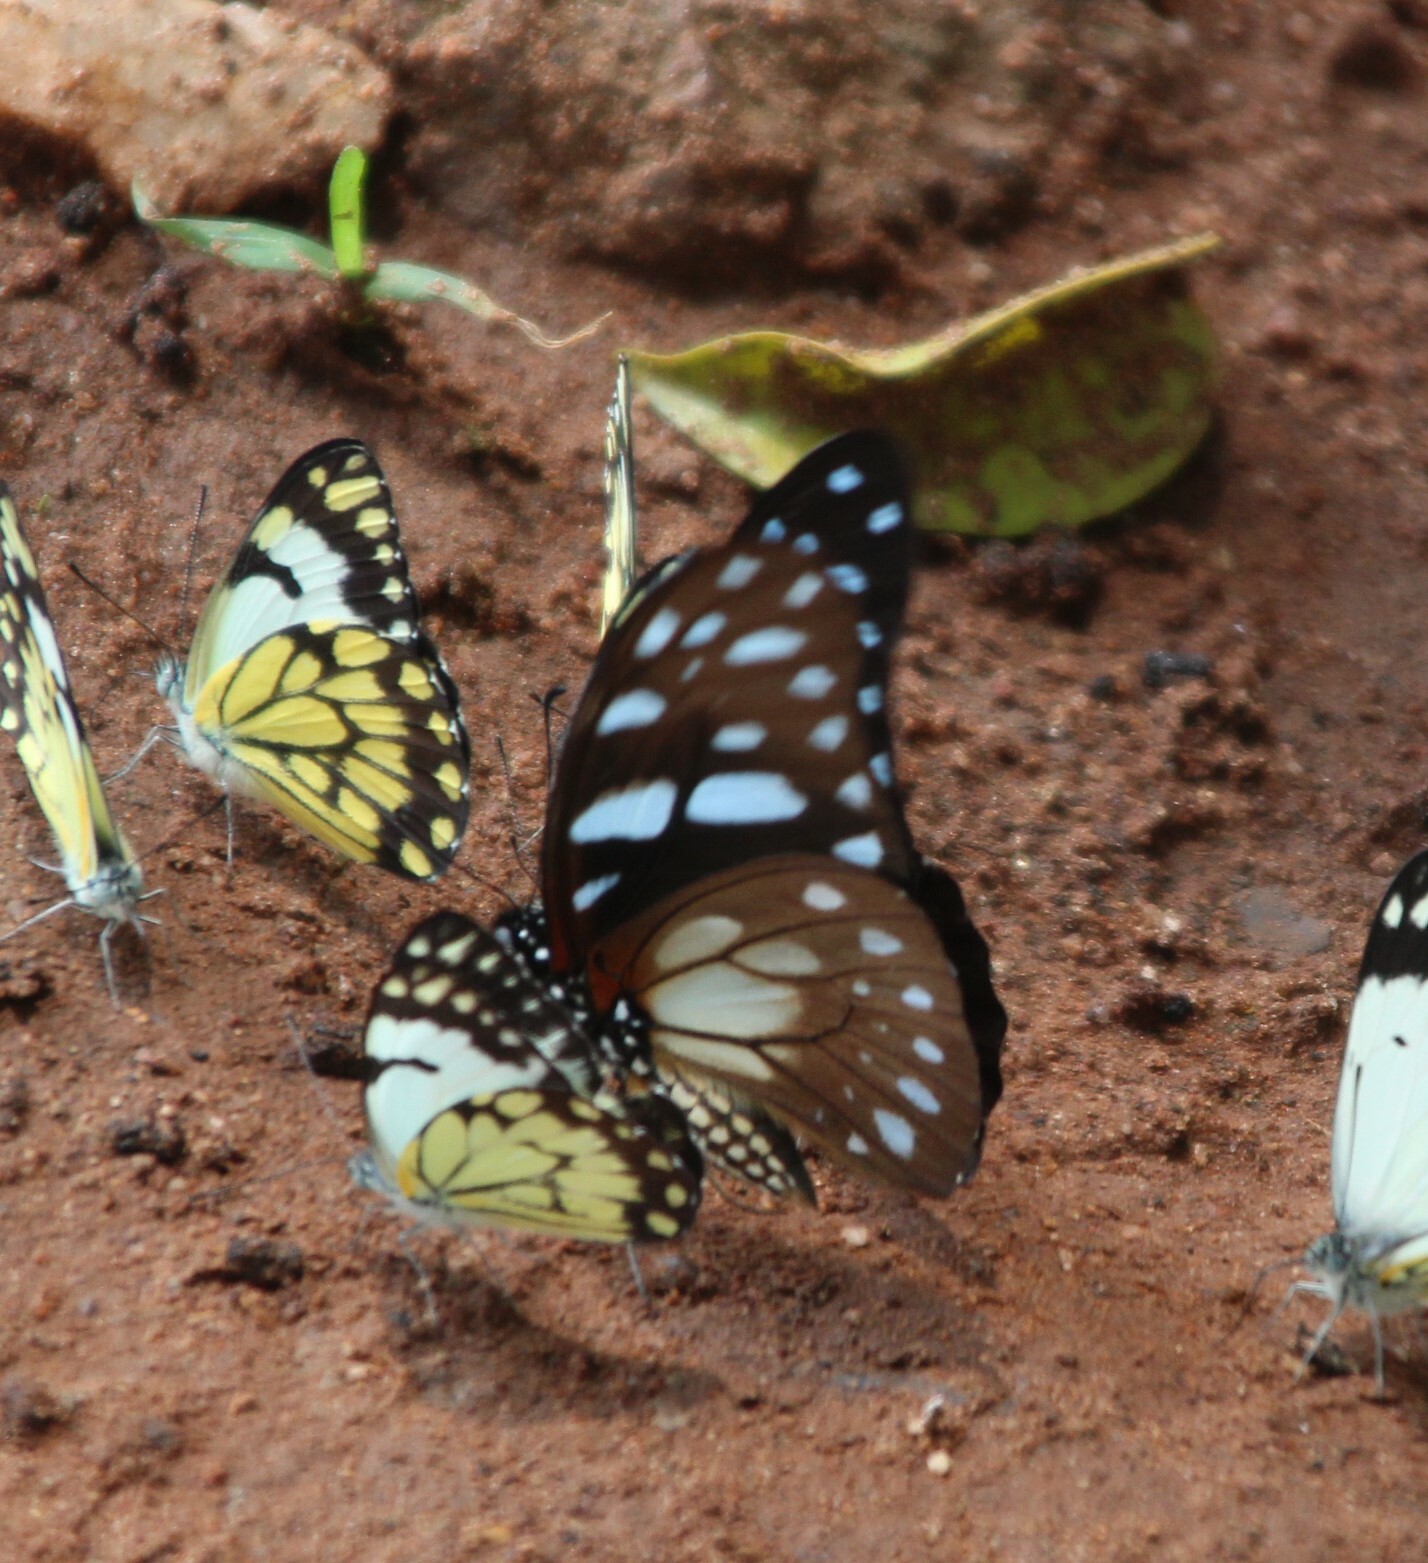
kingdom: Animalia
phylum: Arthropoda
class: Insecta
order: Lepidoptera
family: Papilionidae
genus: Graphium
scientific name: Graphium leonidas
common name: Common graphium
